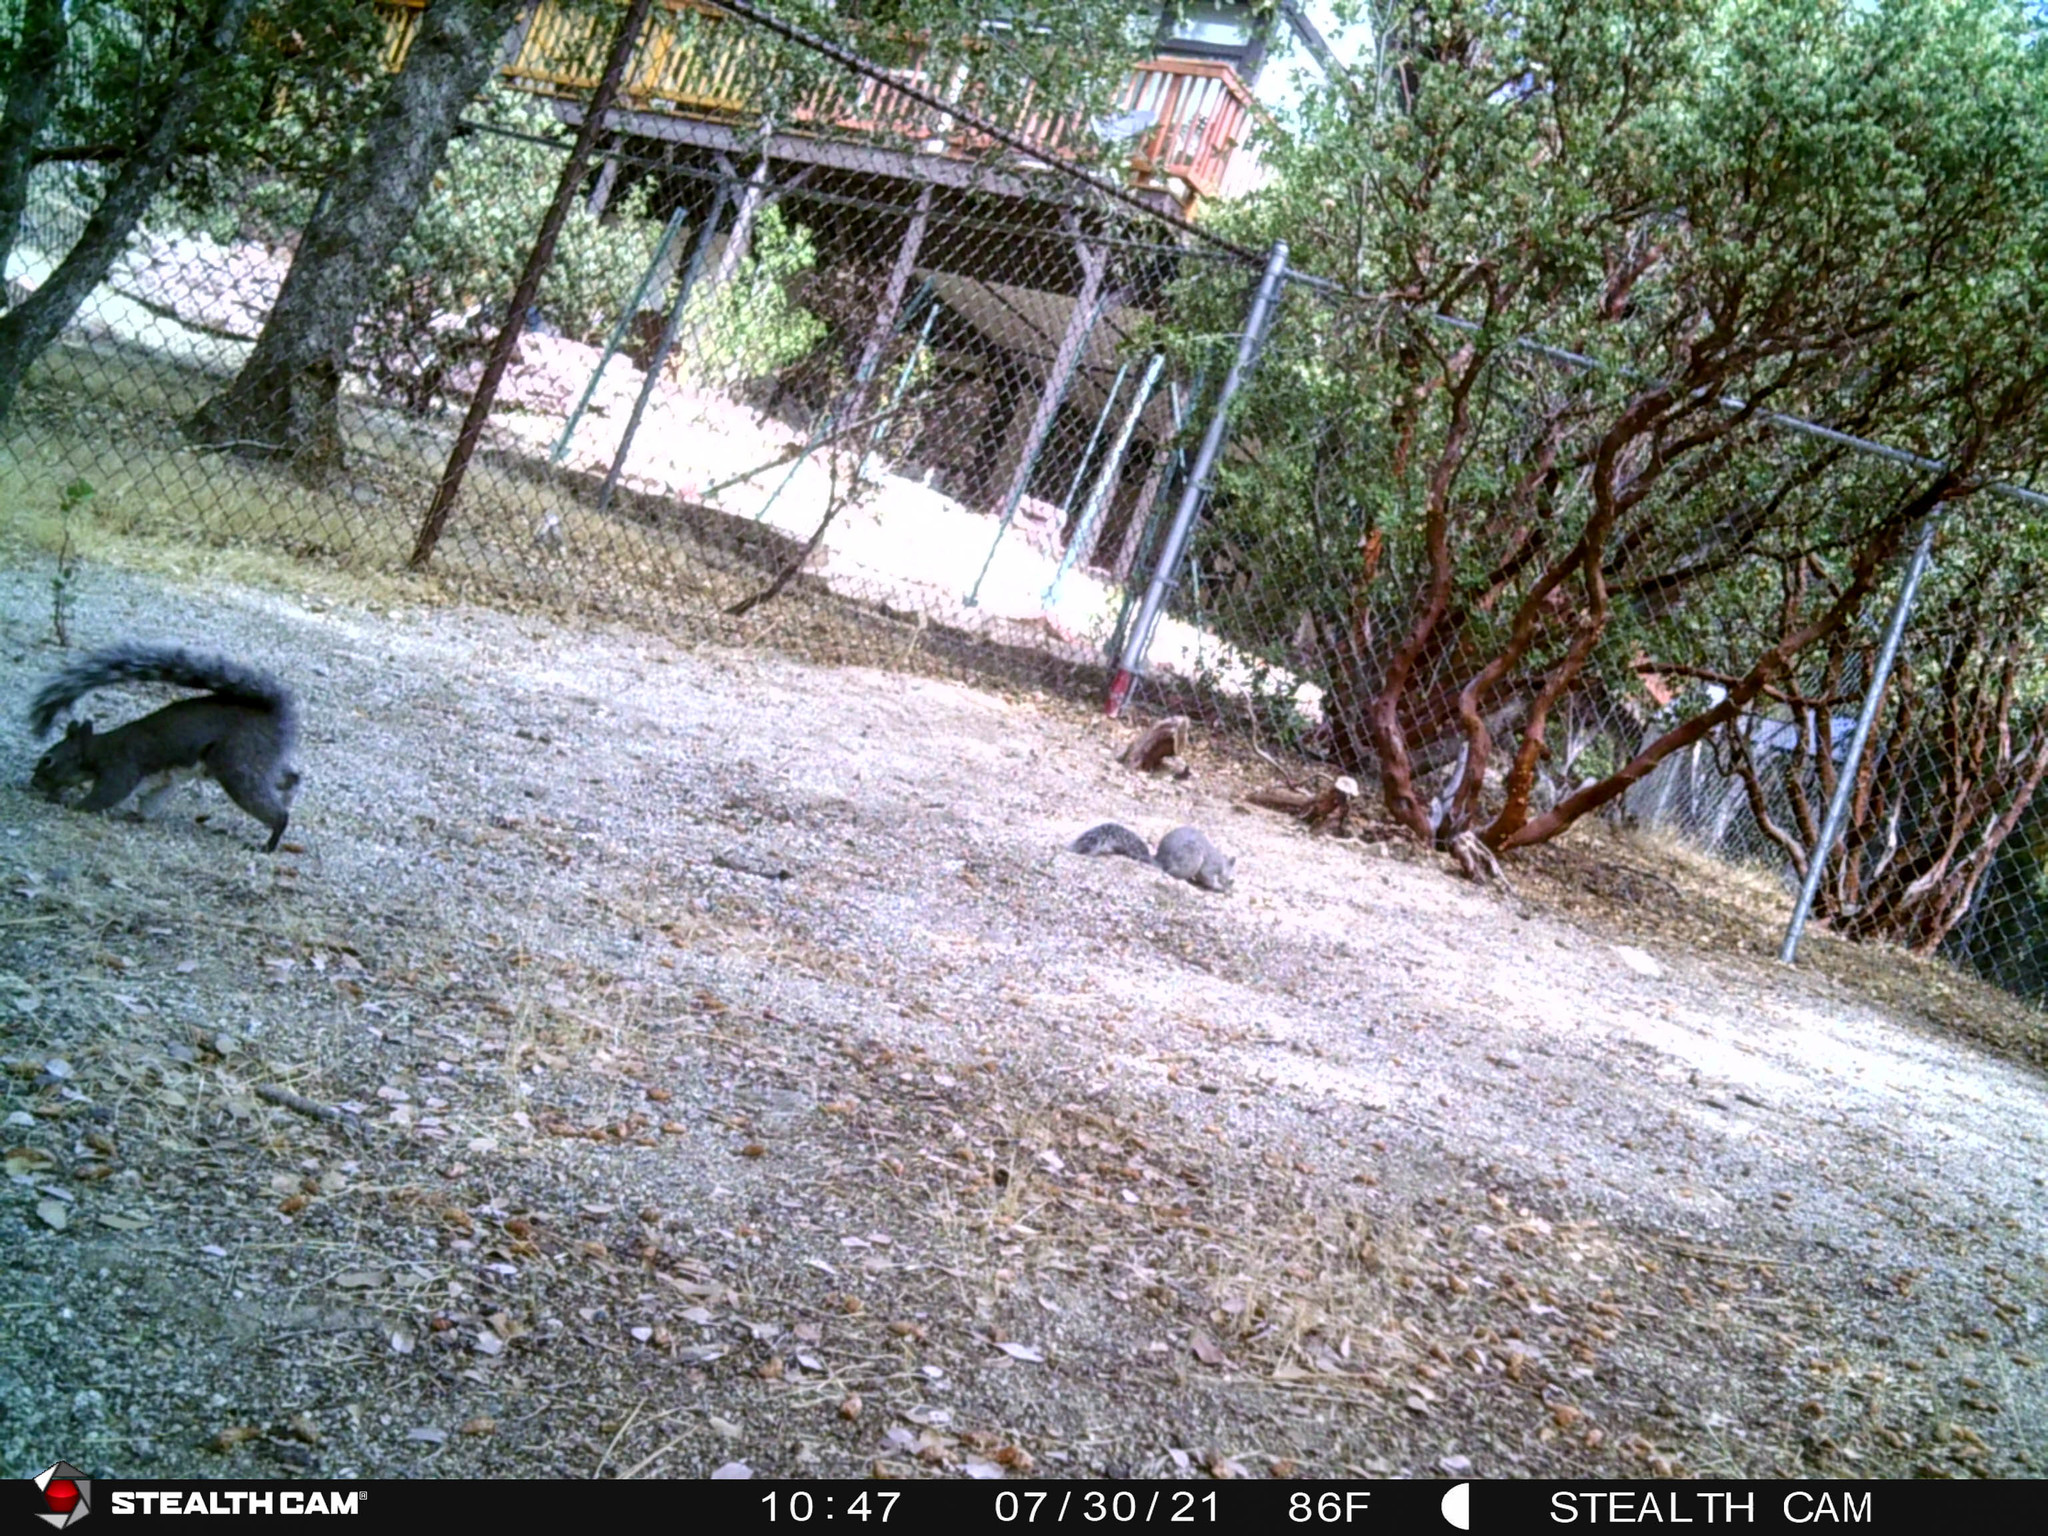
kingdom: Animalia
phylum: Chordata
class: Mammalia
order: Rodentia
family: Sciuridae
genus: Sciurus
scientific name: Sciurus griseus
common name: Western gray squirrel
